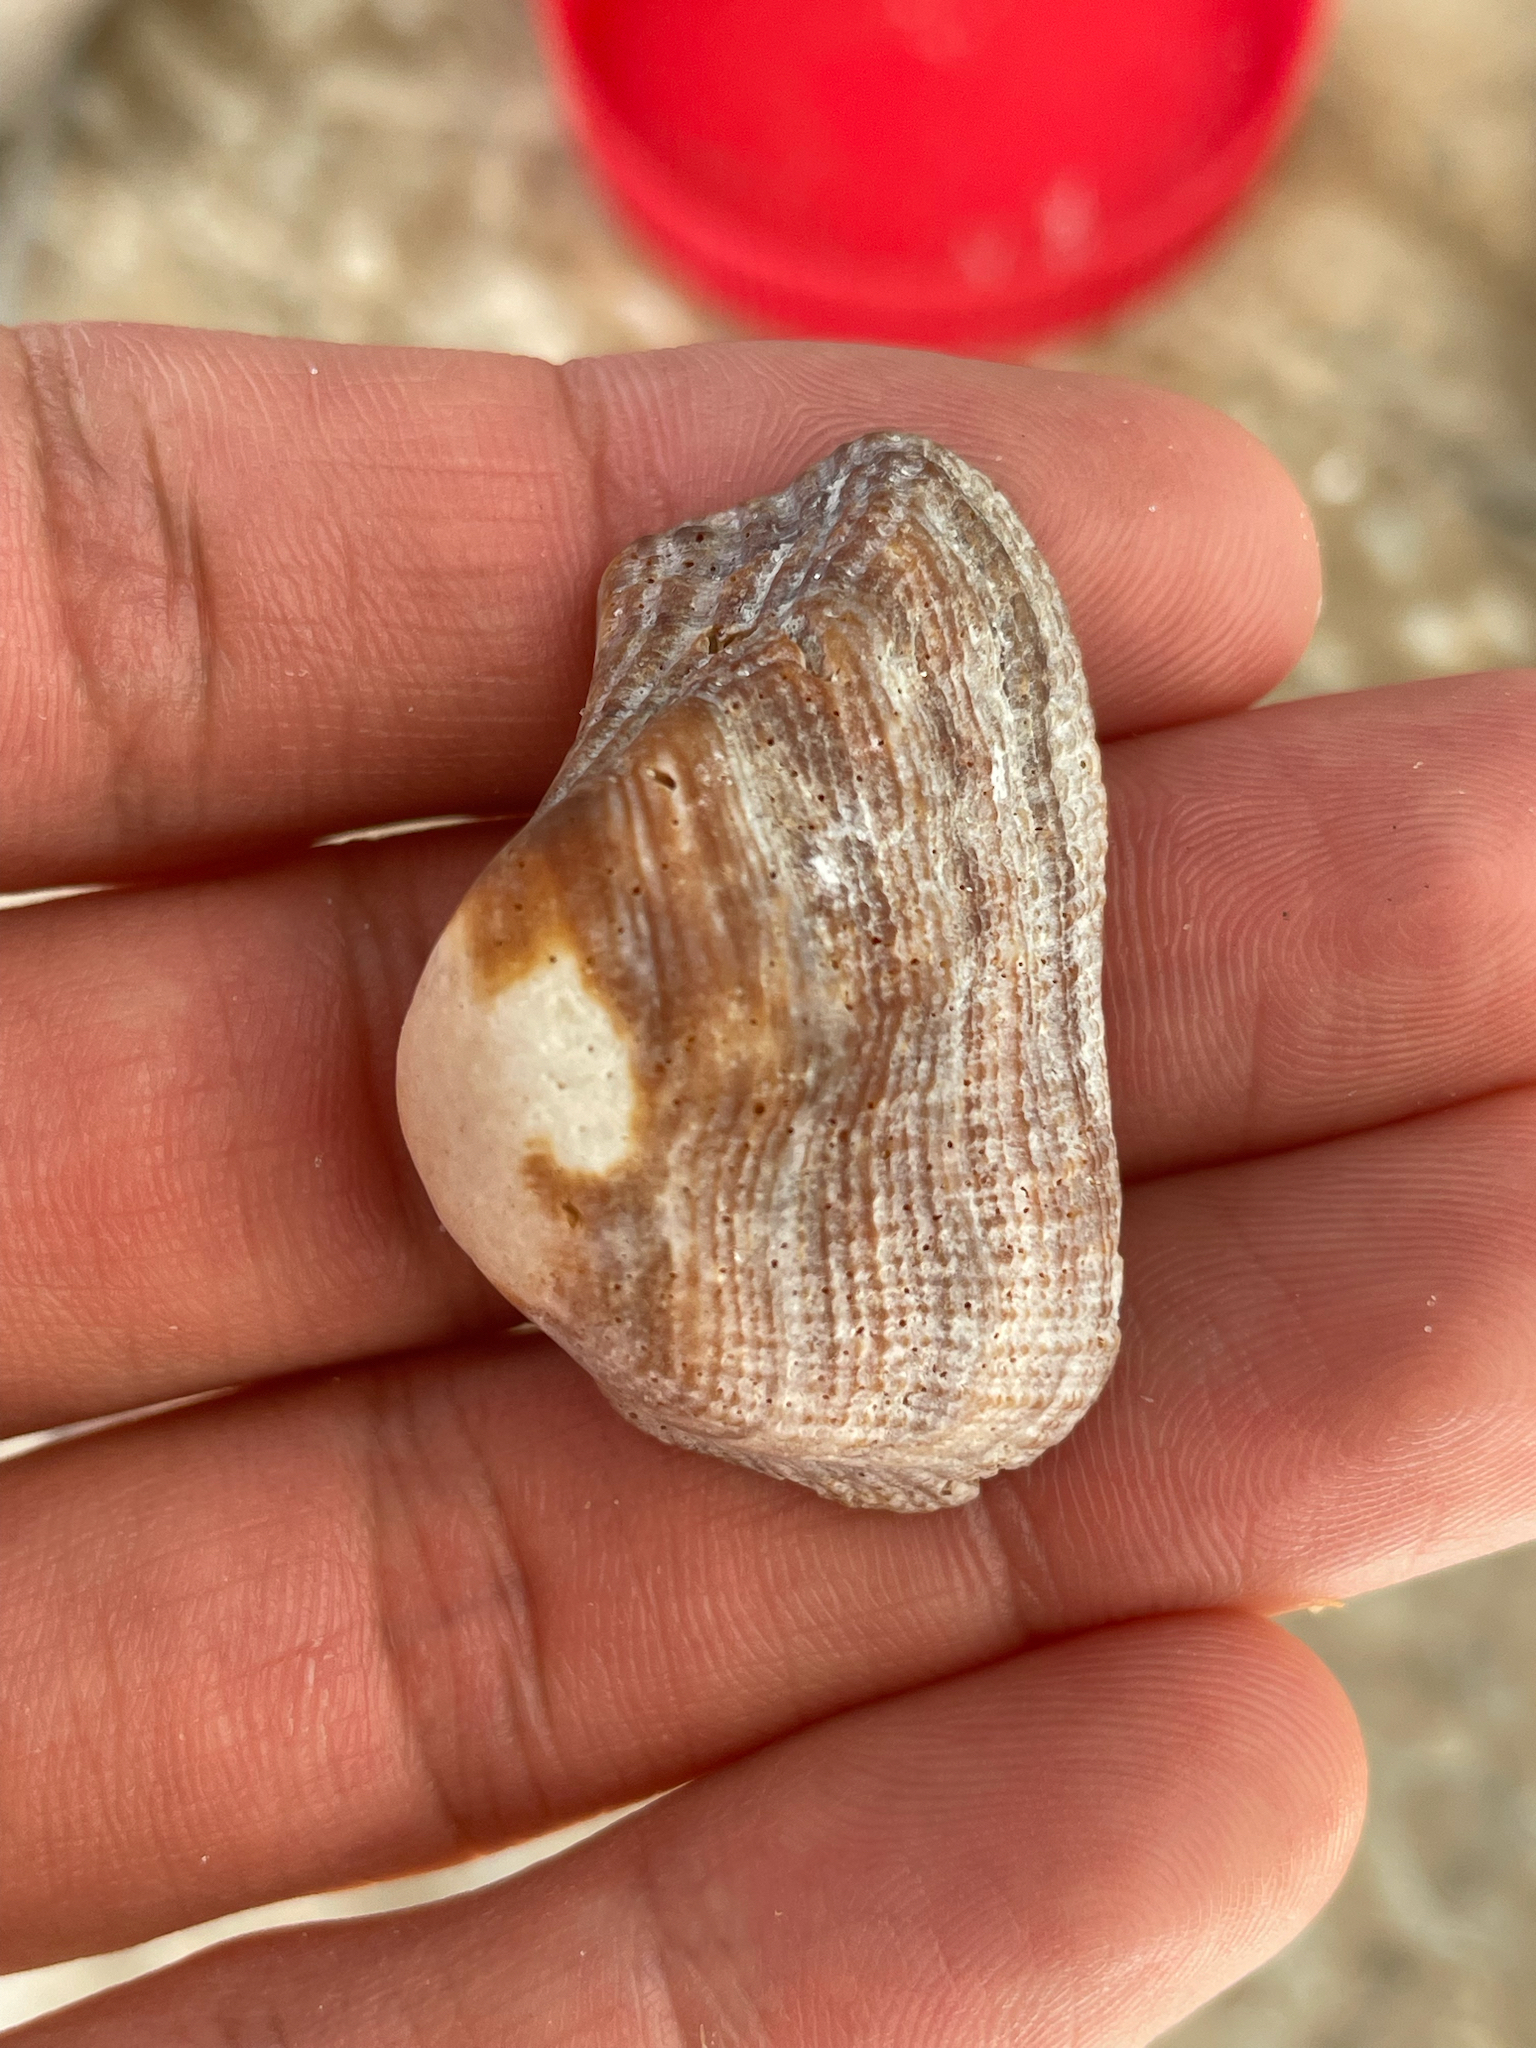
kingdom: Animalia
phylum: Mollusca
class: Bivalvia
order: Arcida
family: Arcidae
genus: Lamarcka
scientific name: Lamarcka imbricata
